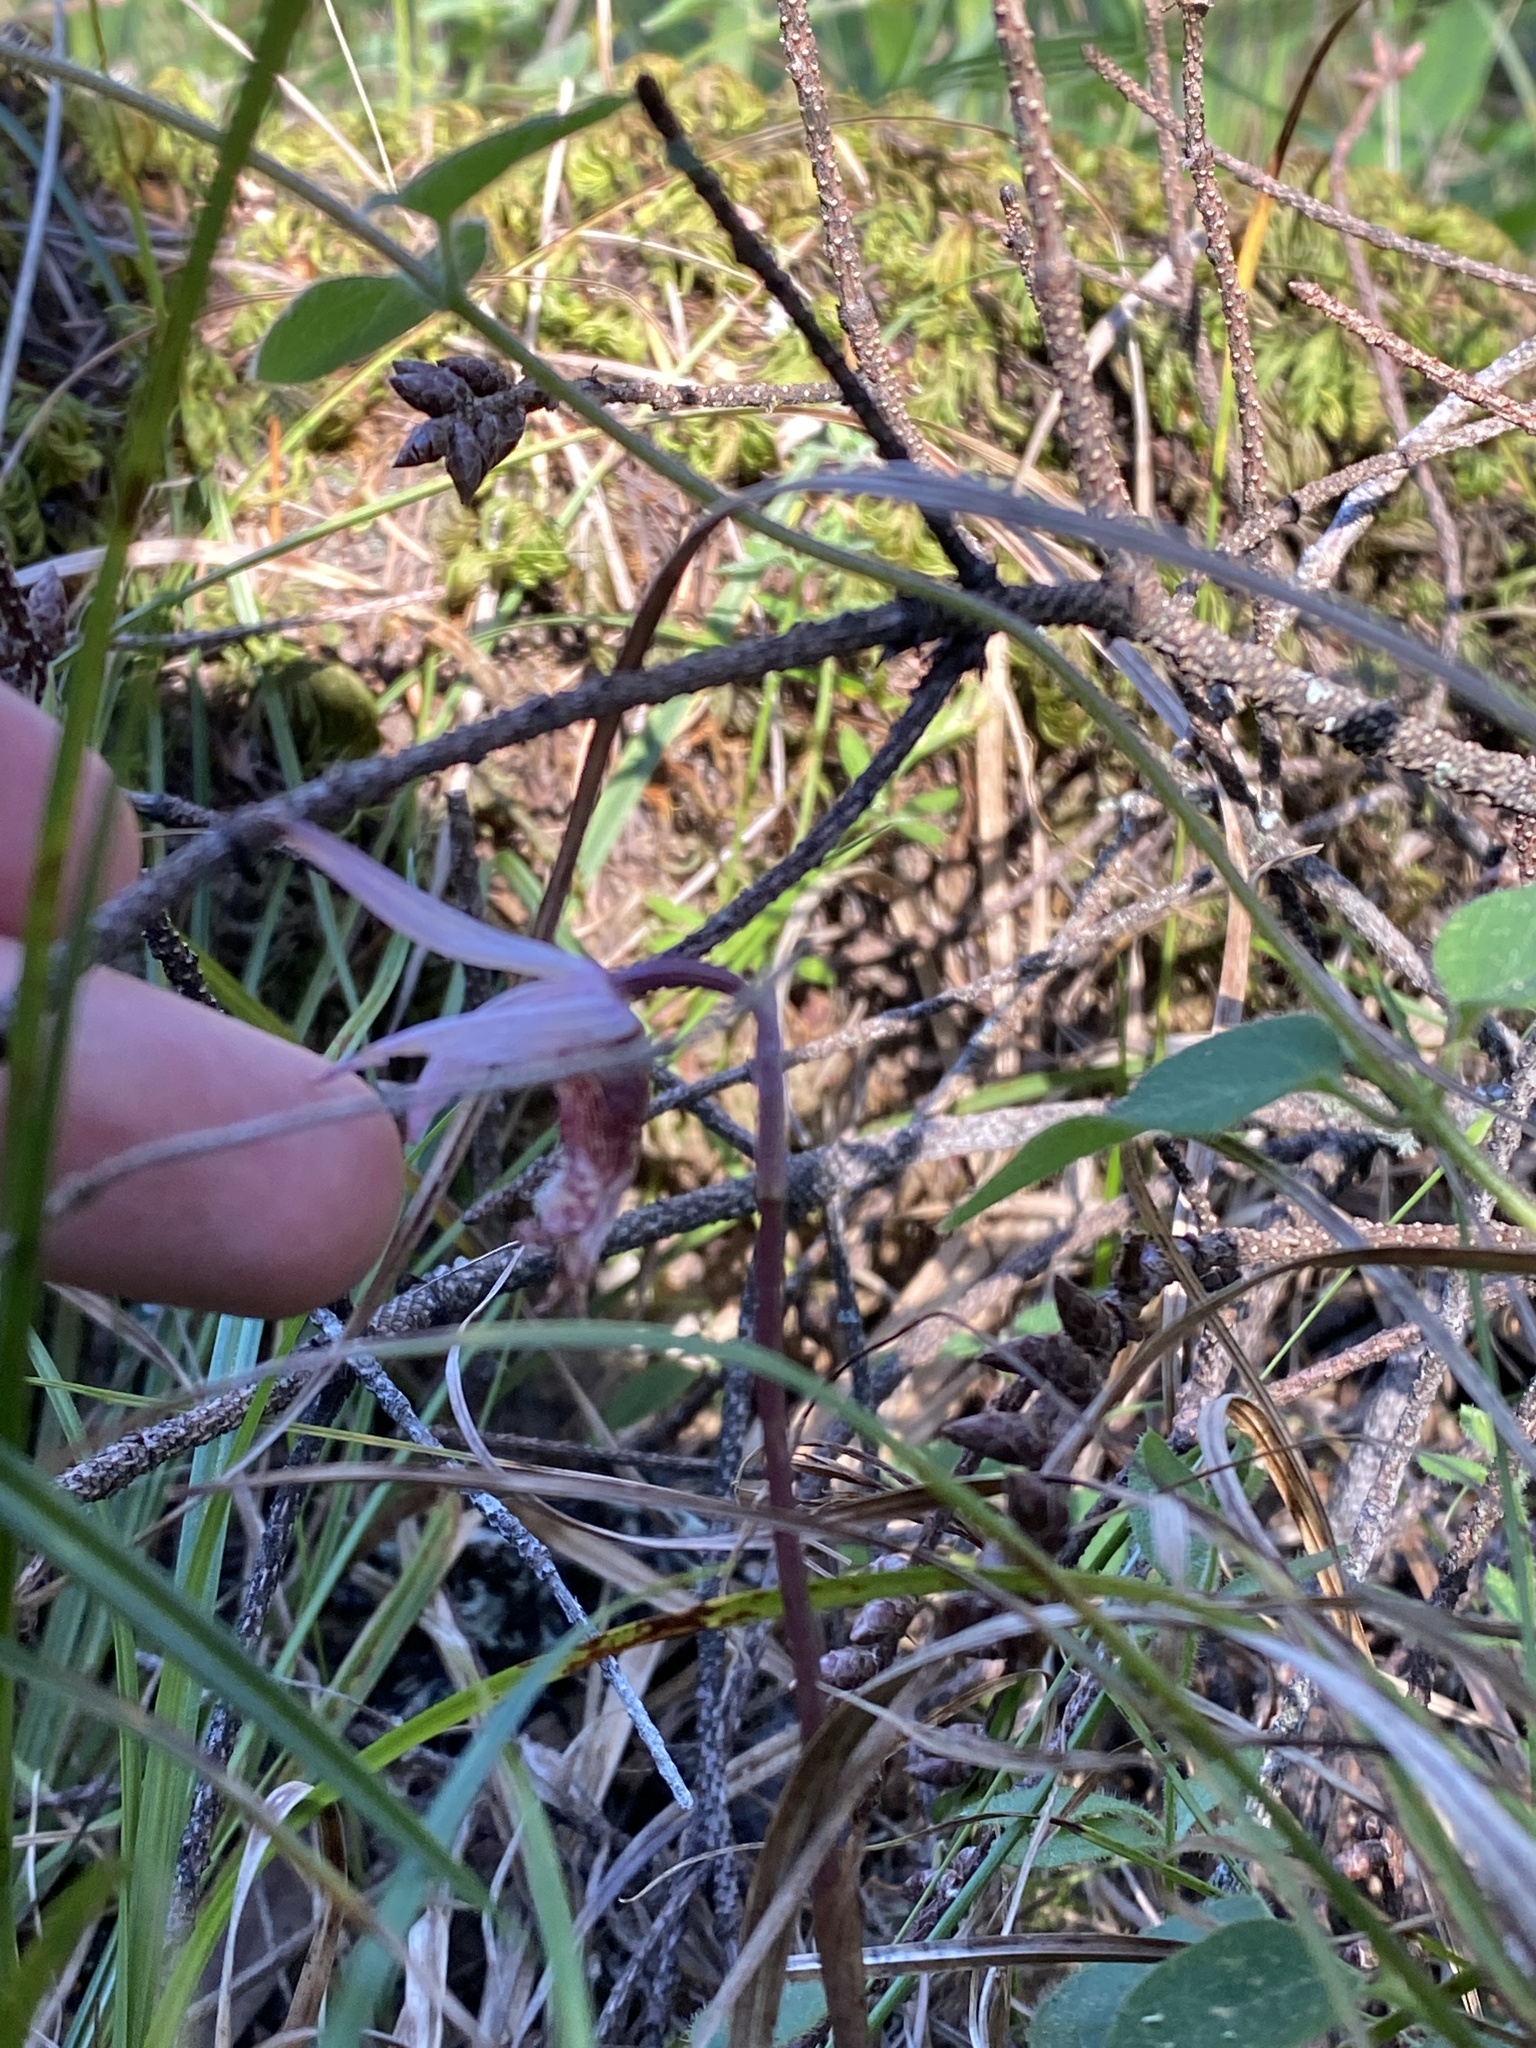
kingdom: Plantae
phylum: Tracheophyta
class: Liliopsida
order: Asparagales
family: Orchidaceae
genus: Calypso
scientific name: Calypso bulbosa
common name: Calypso
